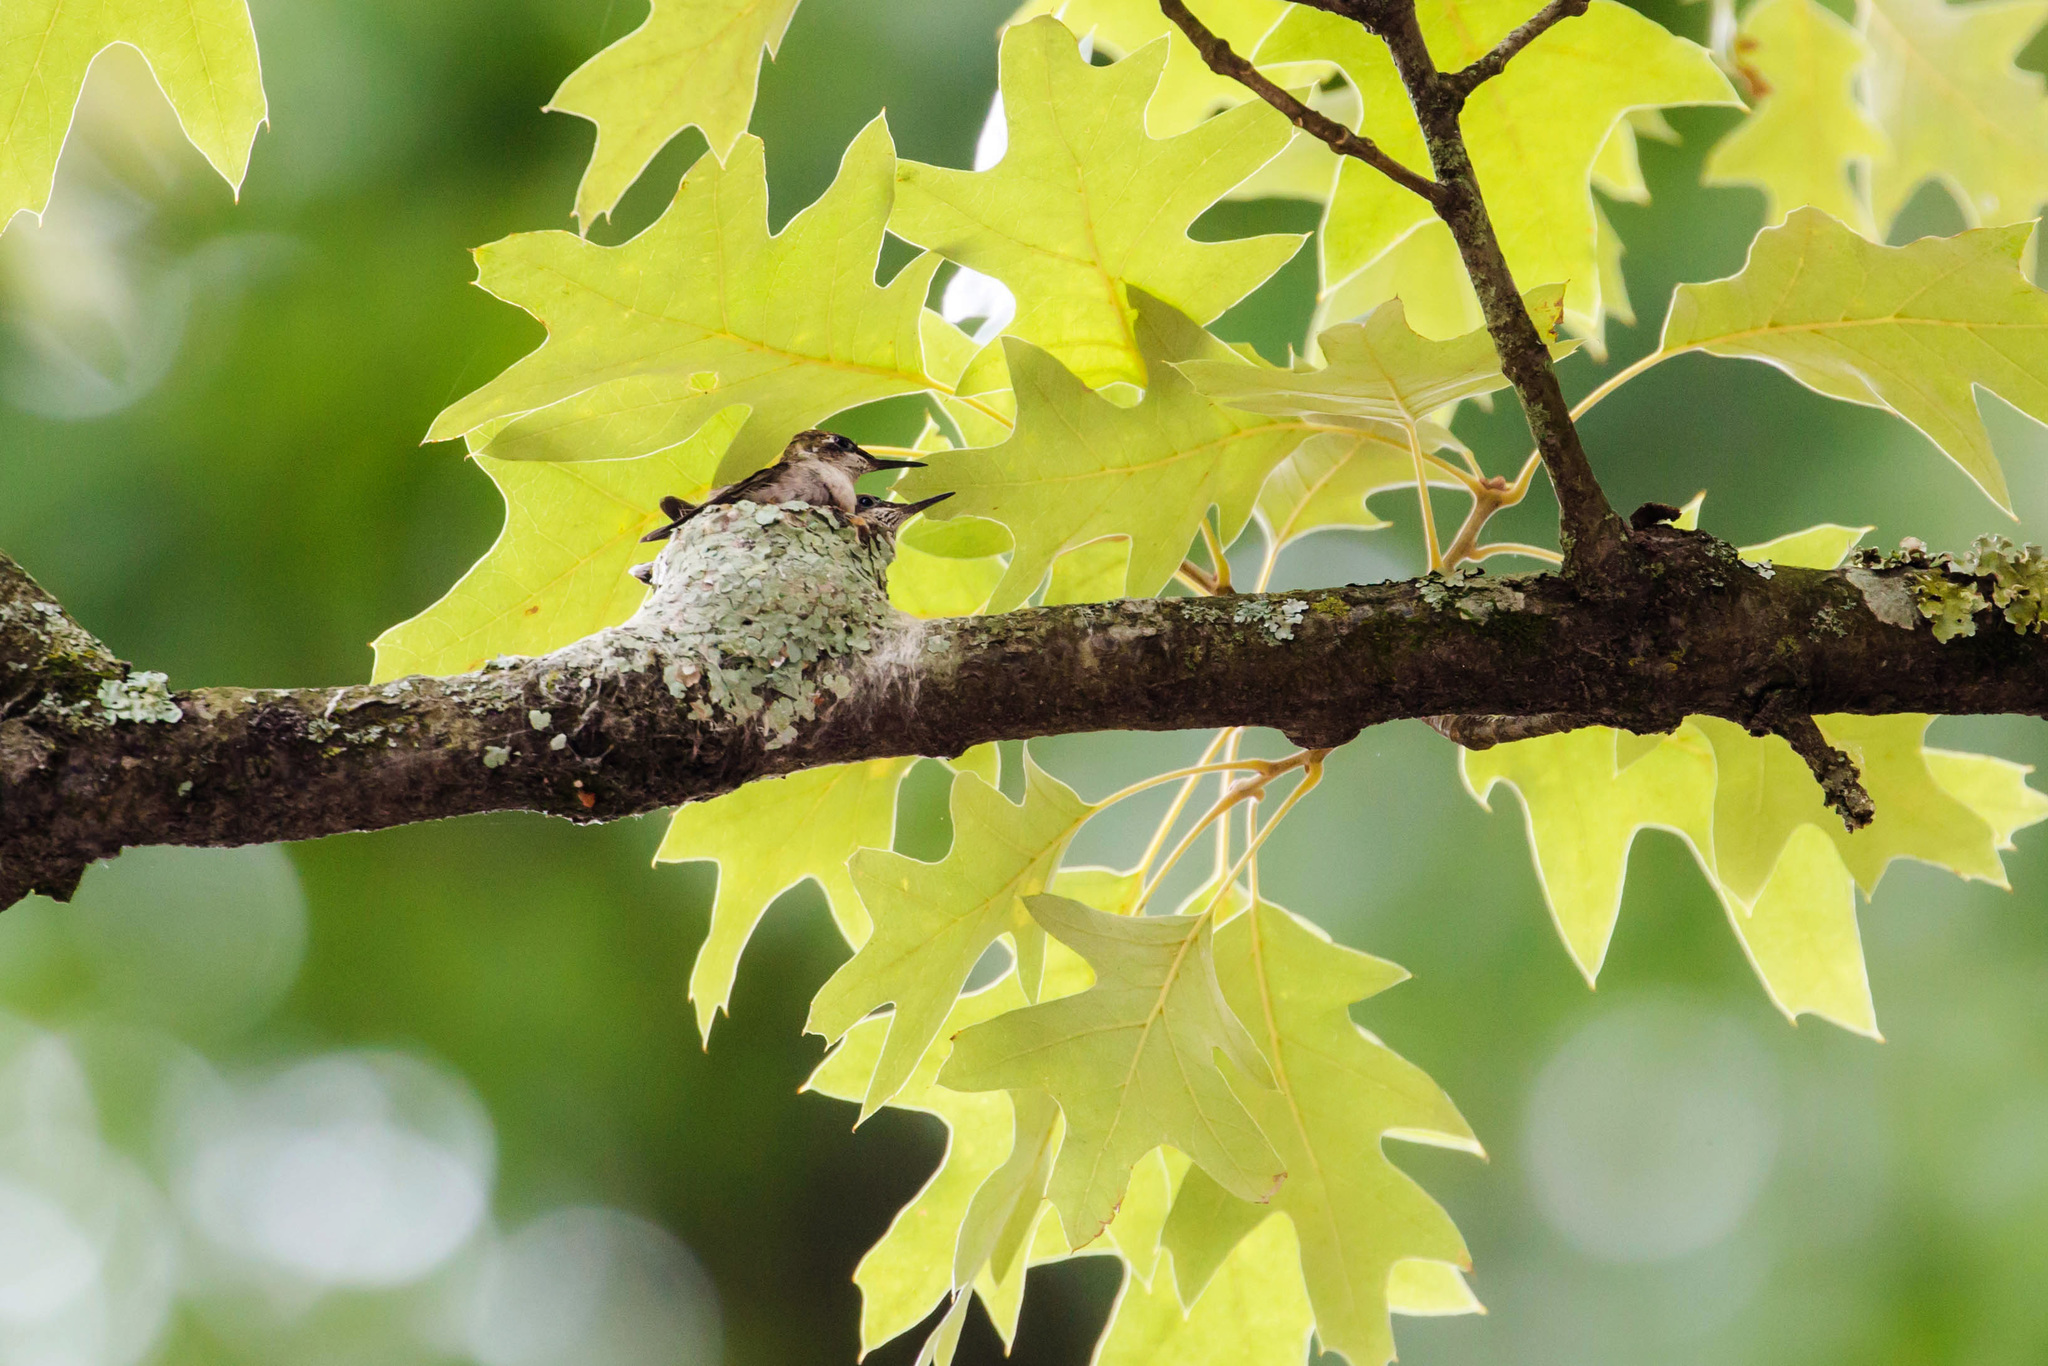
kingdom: Animalia
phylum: Chordata
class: Aves
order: Apodiformes
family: Trochilidae
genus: Archilochus
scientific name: Archilochus colubris
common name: Ruby-throated hummingbird
